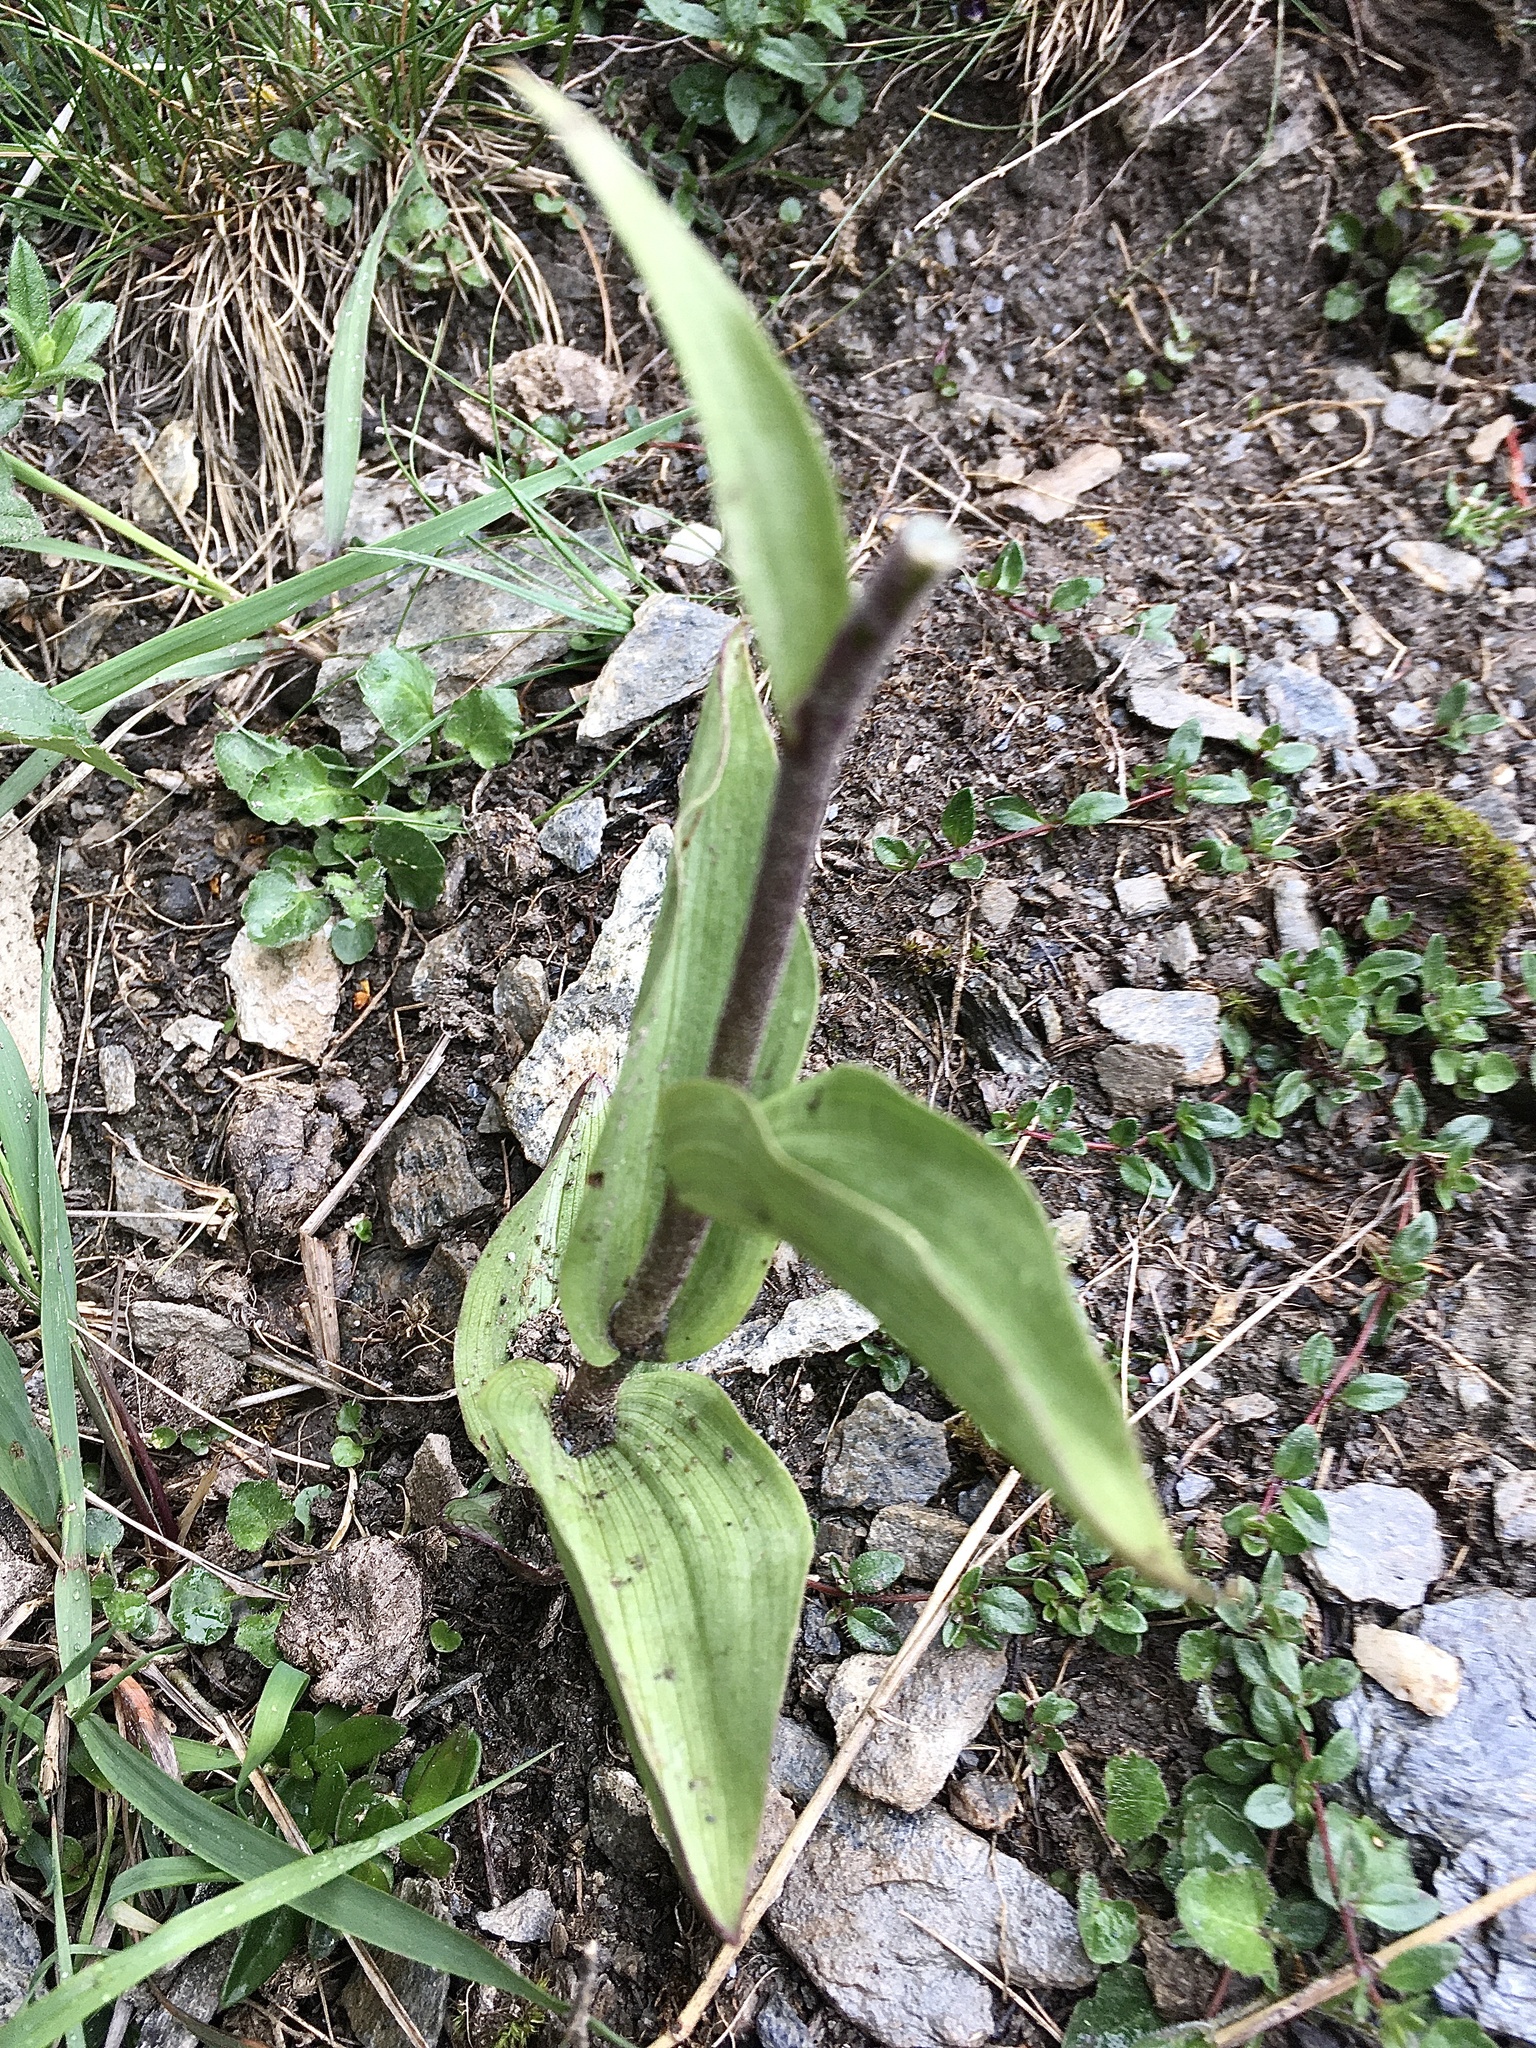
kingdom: Plantae
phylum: Tracheophyta
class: Liliopsida
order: Asparagales
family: Orchidaceae
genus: Epipactis
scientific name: Epipactis atrorubens
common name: Dark-red helleborine
